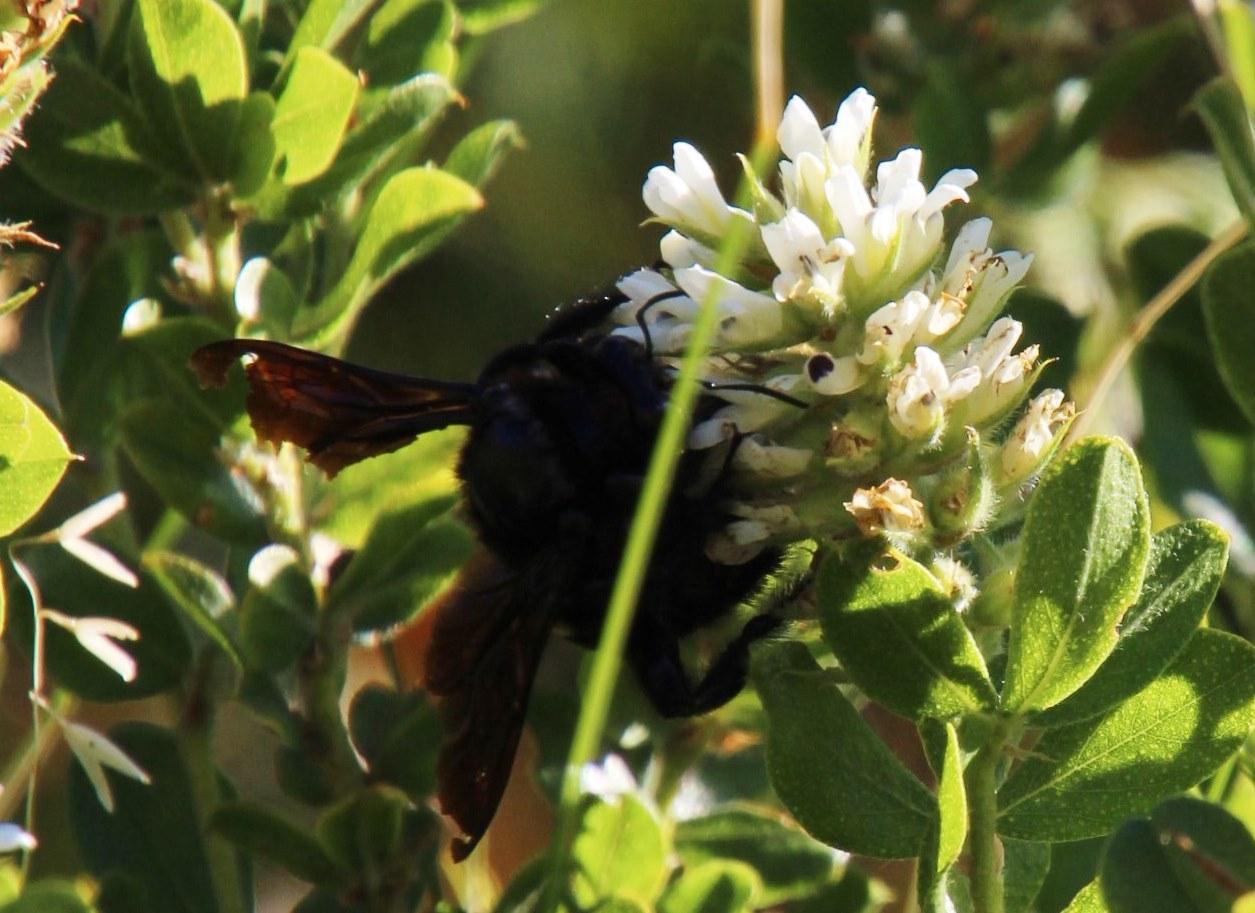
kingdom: Plantae
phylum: Tracheophyta
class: Magnoliopsida
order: Fabales
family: Fabaceae
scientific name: Fabaceae
